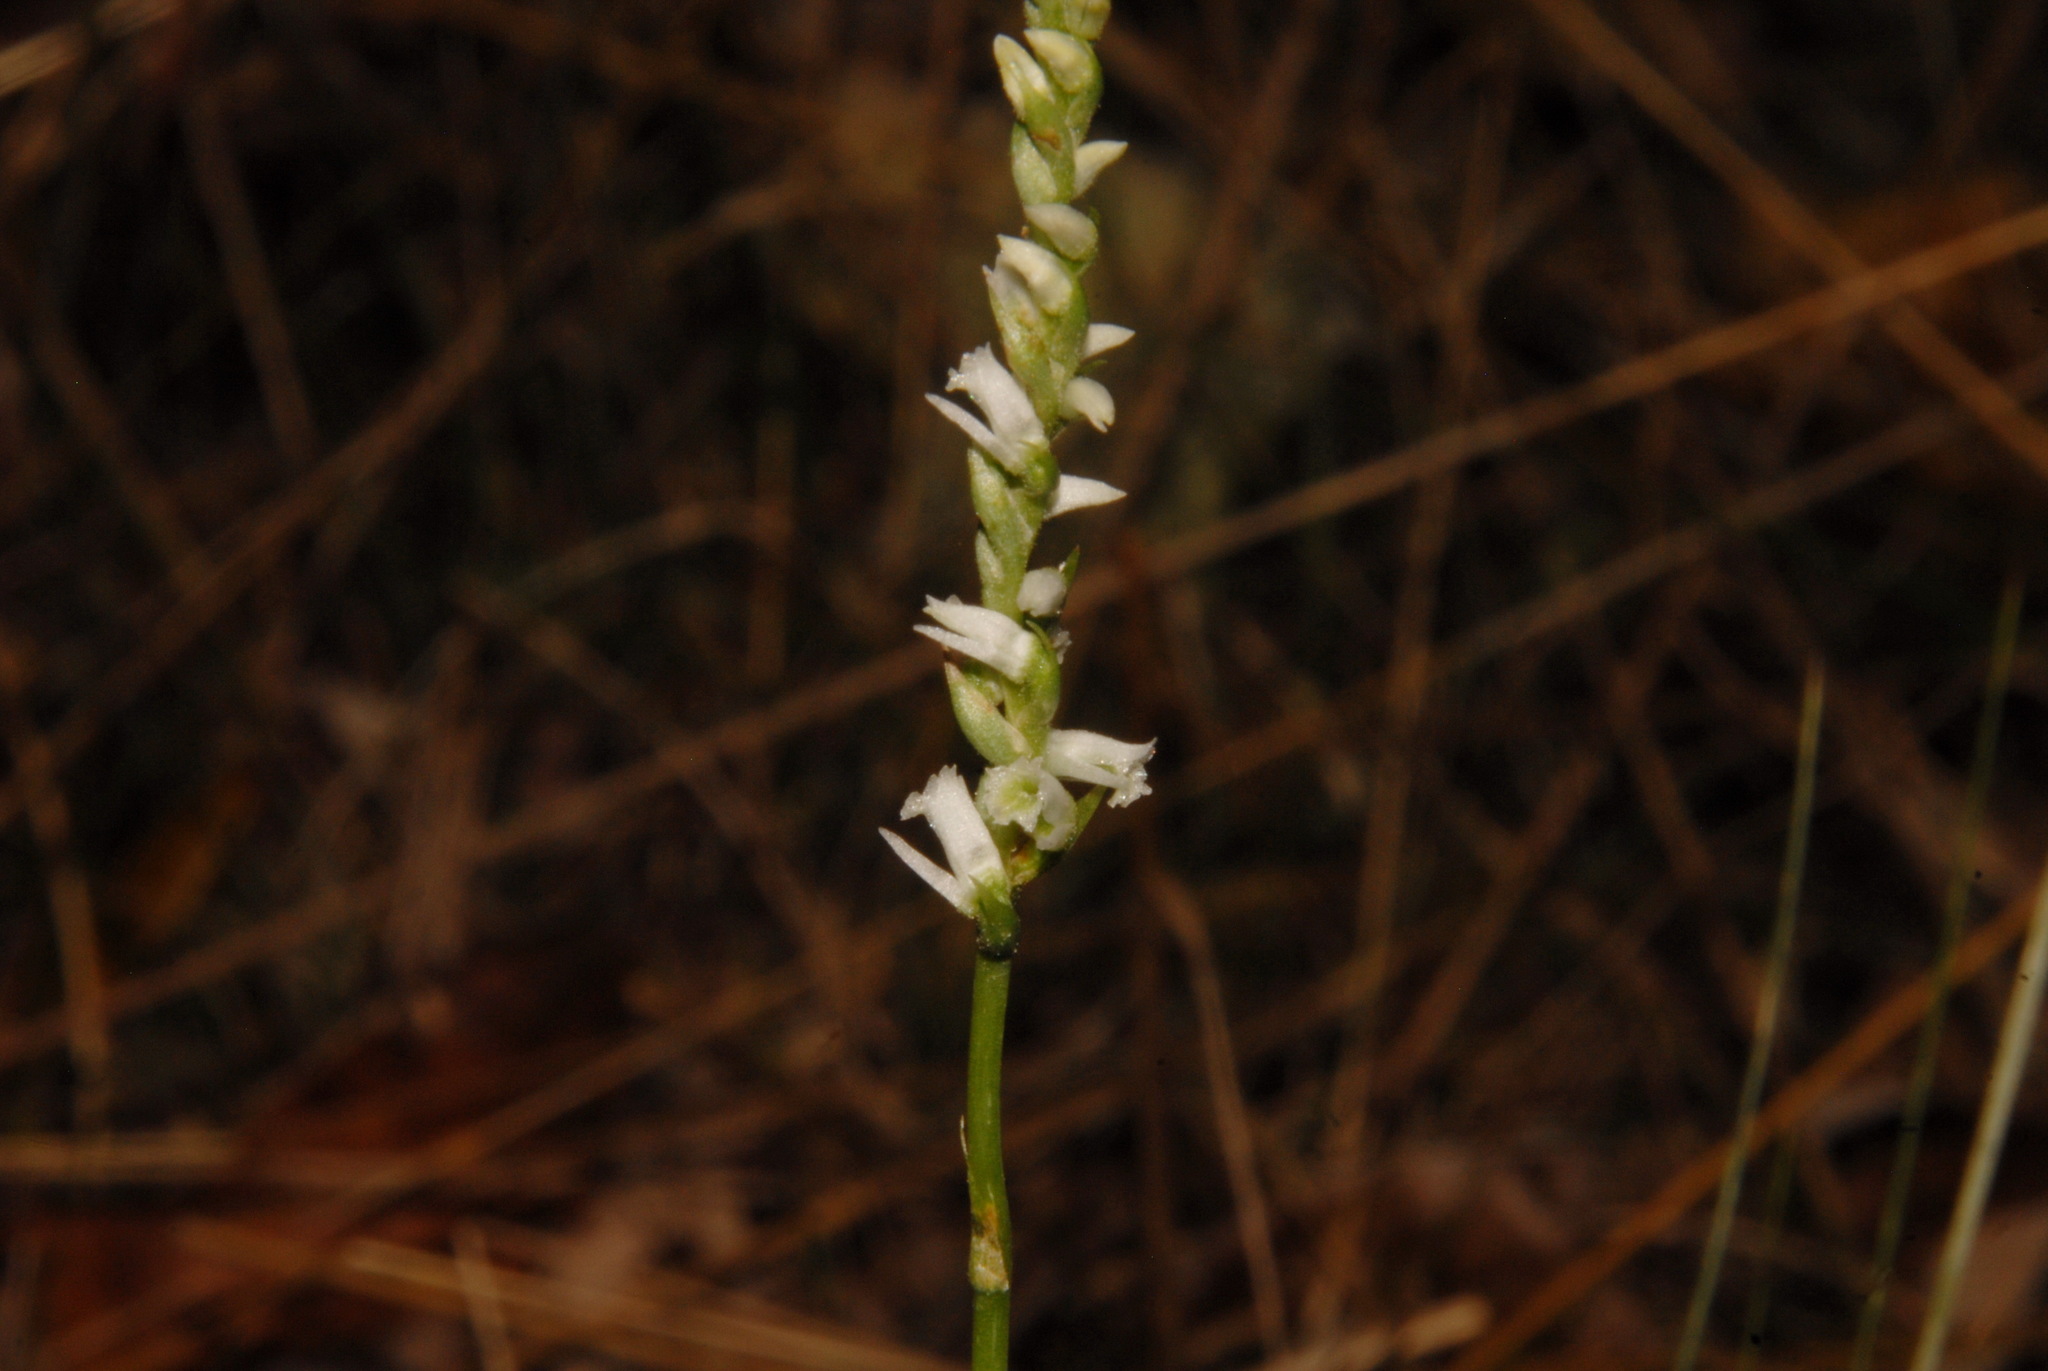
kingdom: Plantae
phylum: Tracheophyta
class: Liliopsida
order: Asparagales
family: Orchidaceae
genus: Spiranthes
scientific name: Spiranthes lacera
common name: Northern slender ladies'-tresses
